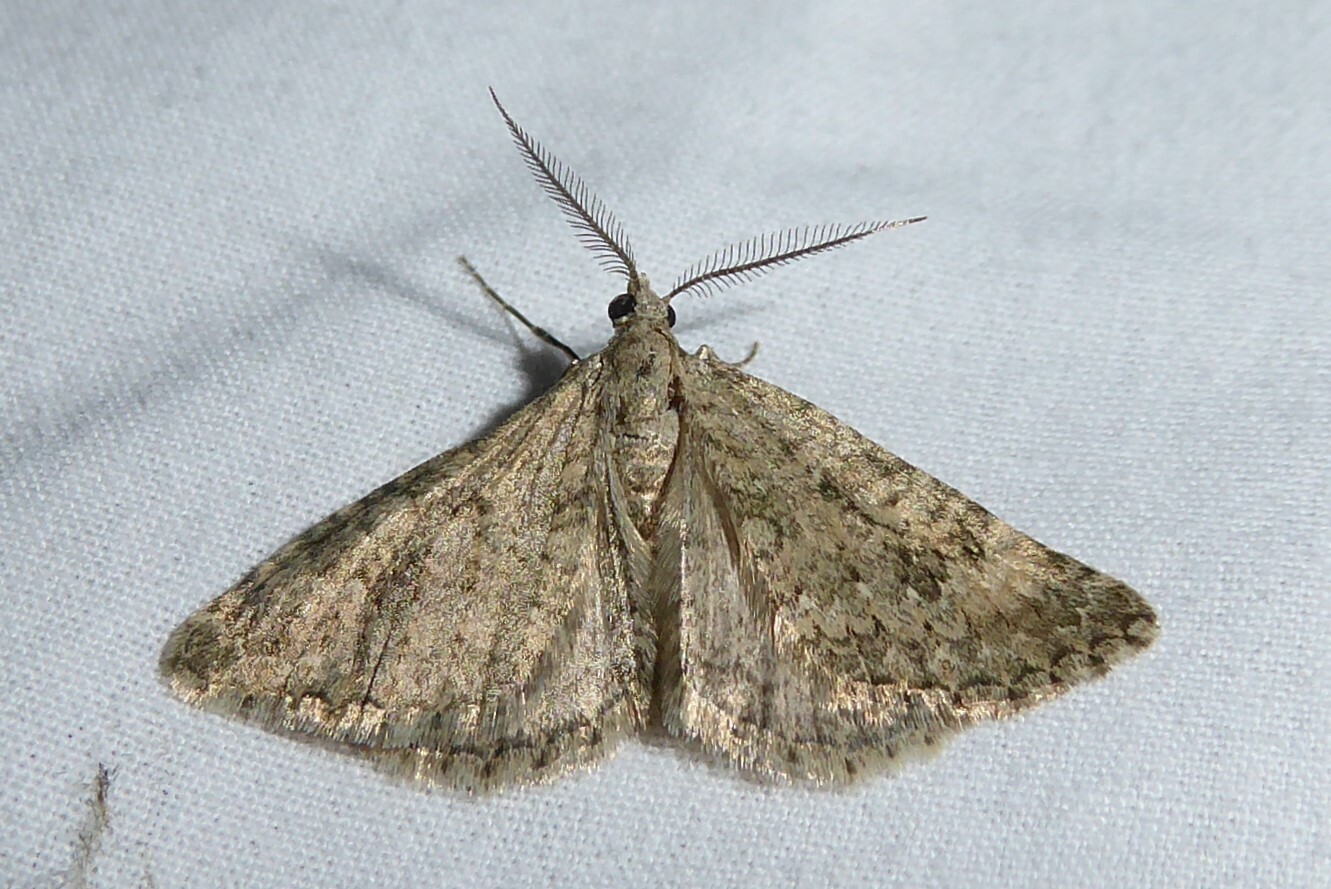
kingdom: Animalia
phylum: Arthropoda
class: Insecta
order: Lepidoptera
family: Geometridae
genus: Helastia
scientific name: Helastia corcularia
